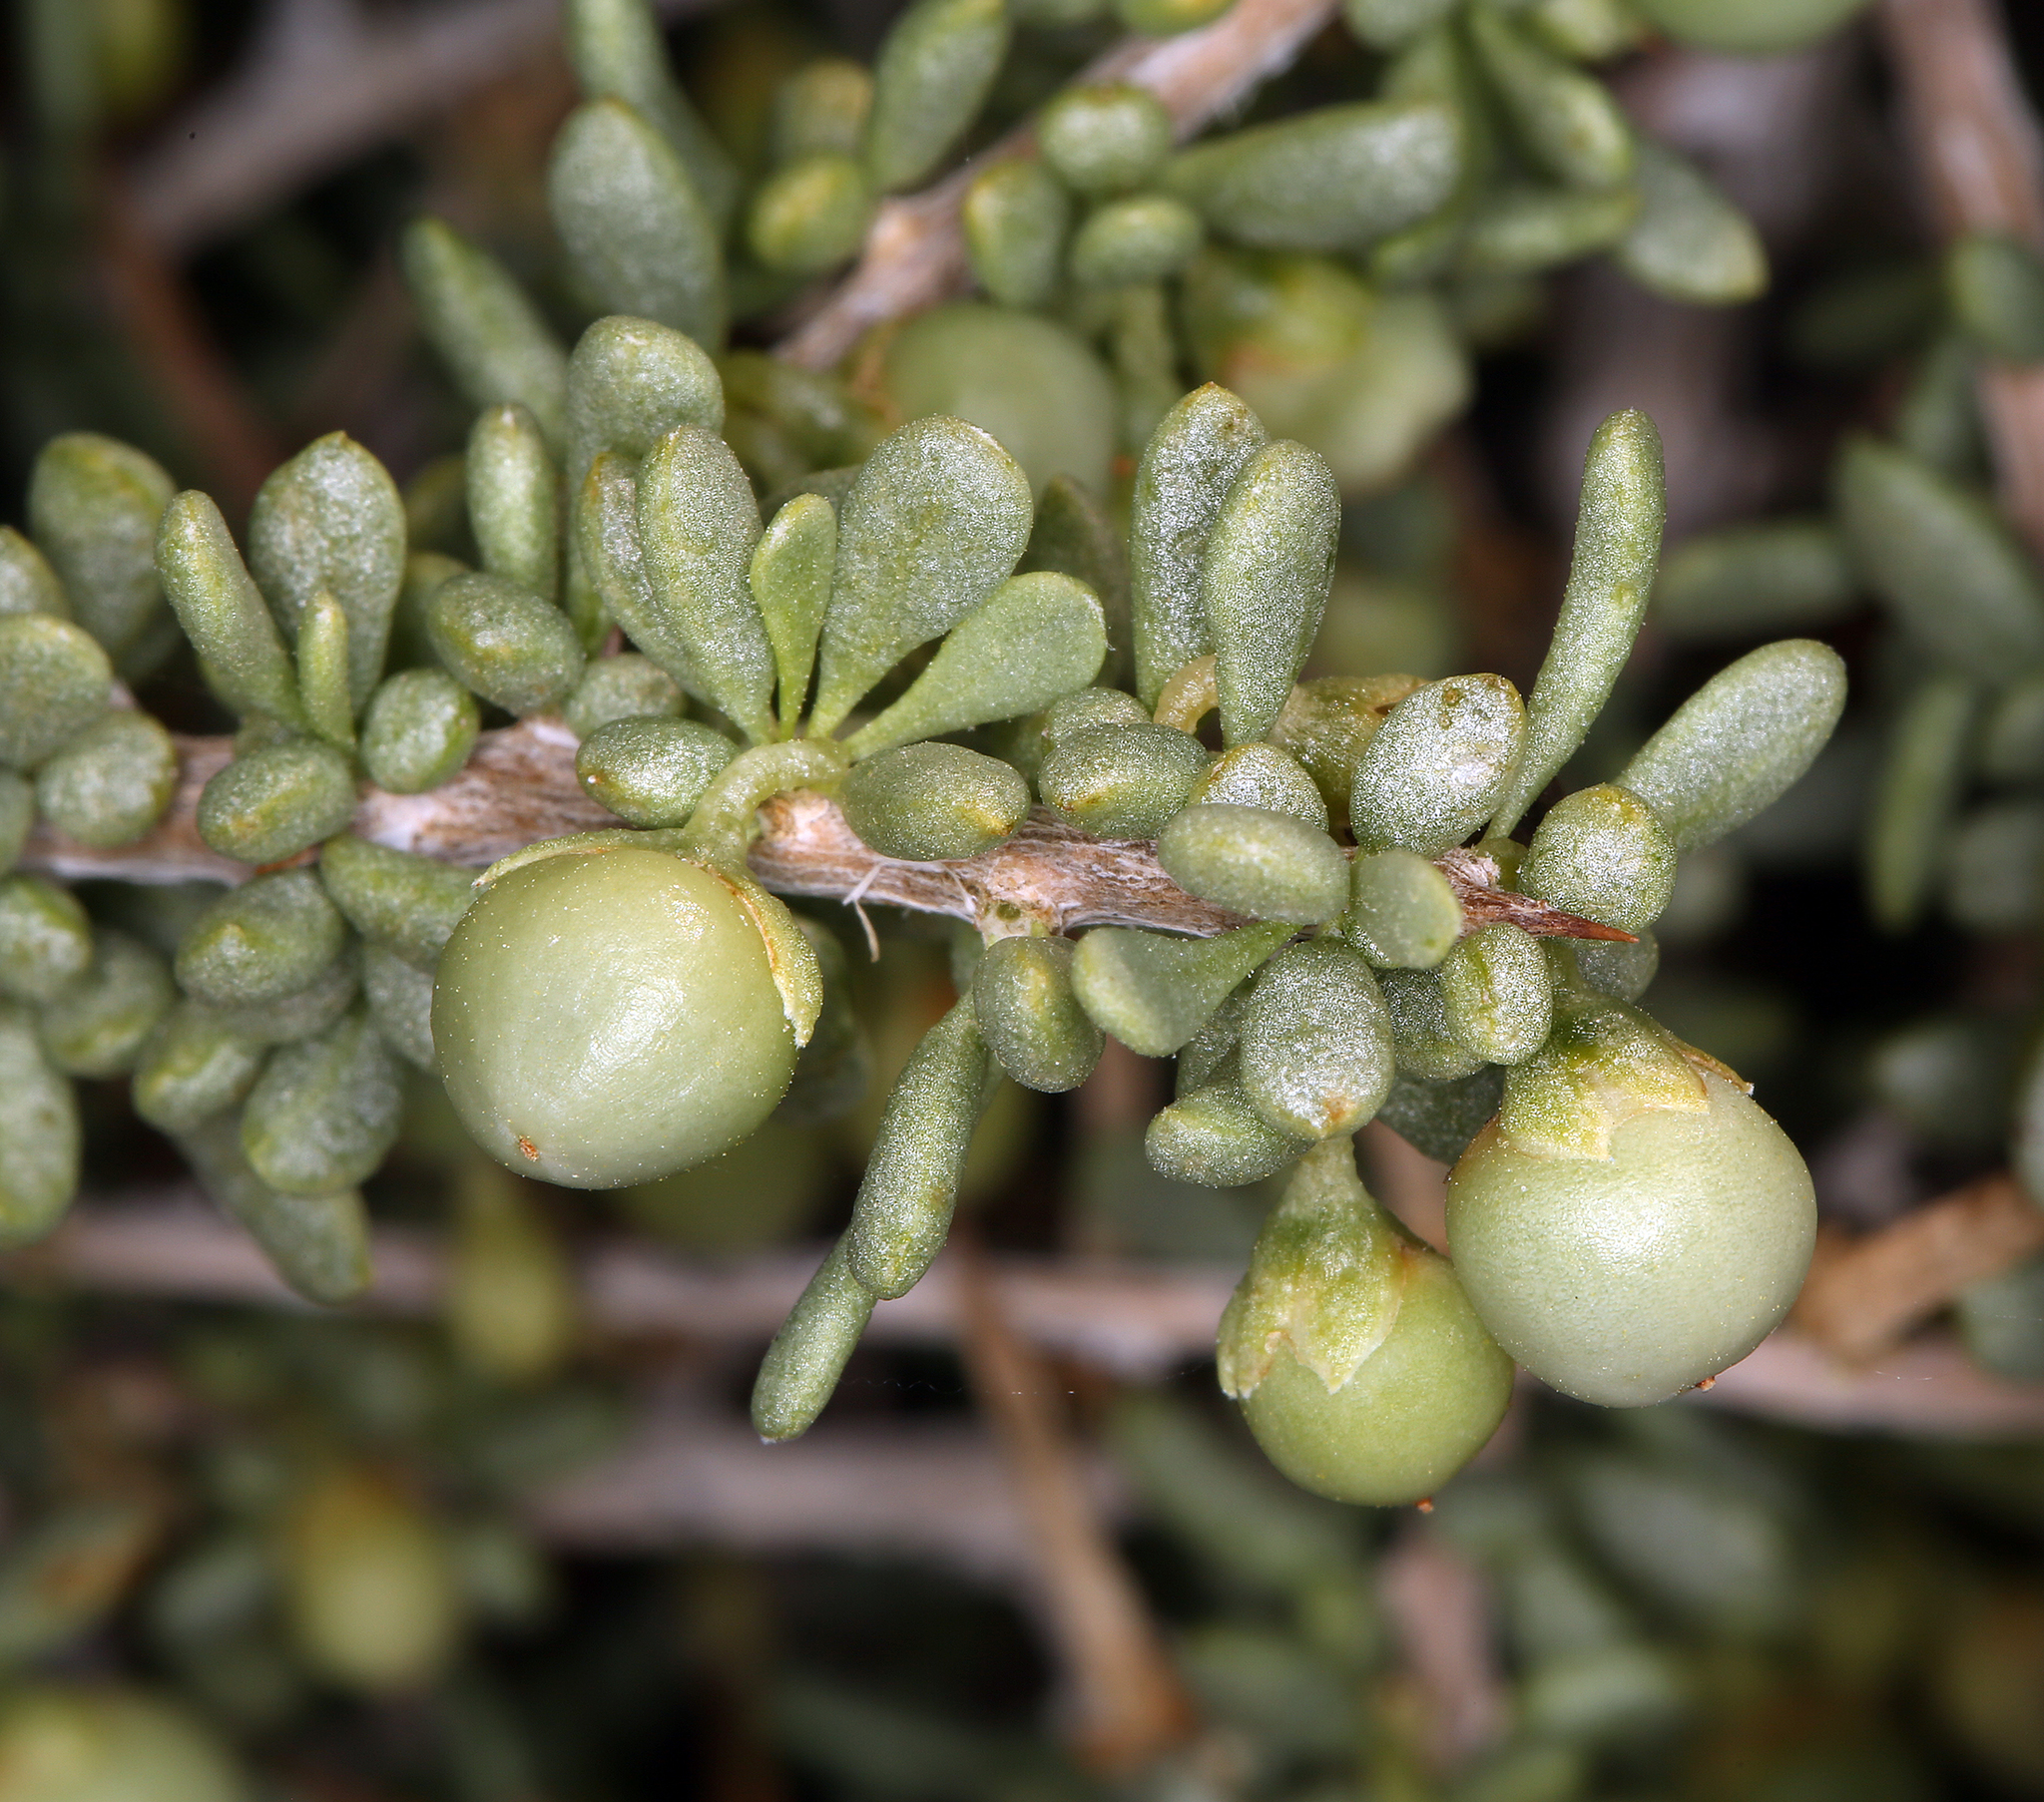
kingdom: Plantae
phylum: Tracheophyta
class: Magnoliopsida
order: Solanales
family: Solanaceae
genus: Lycium
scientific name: Lycium andersonii
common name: Water-jacket
